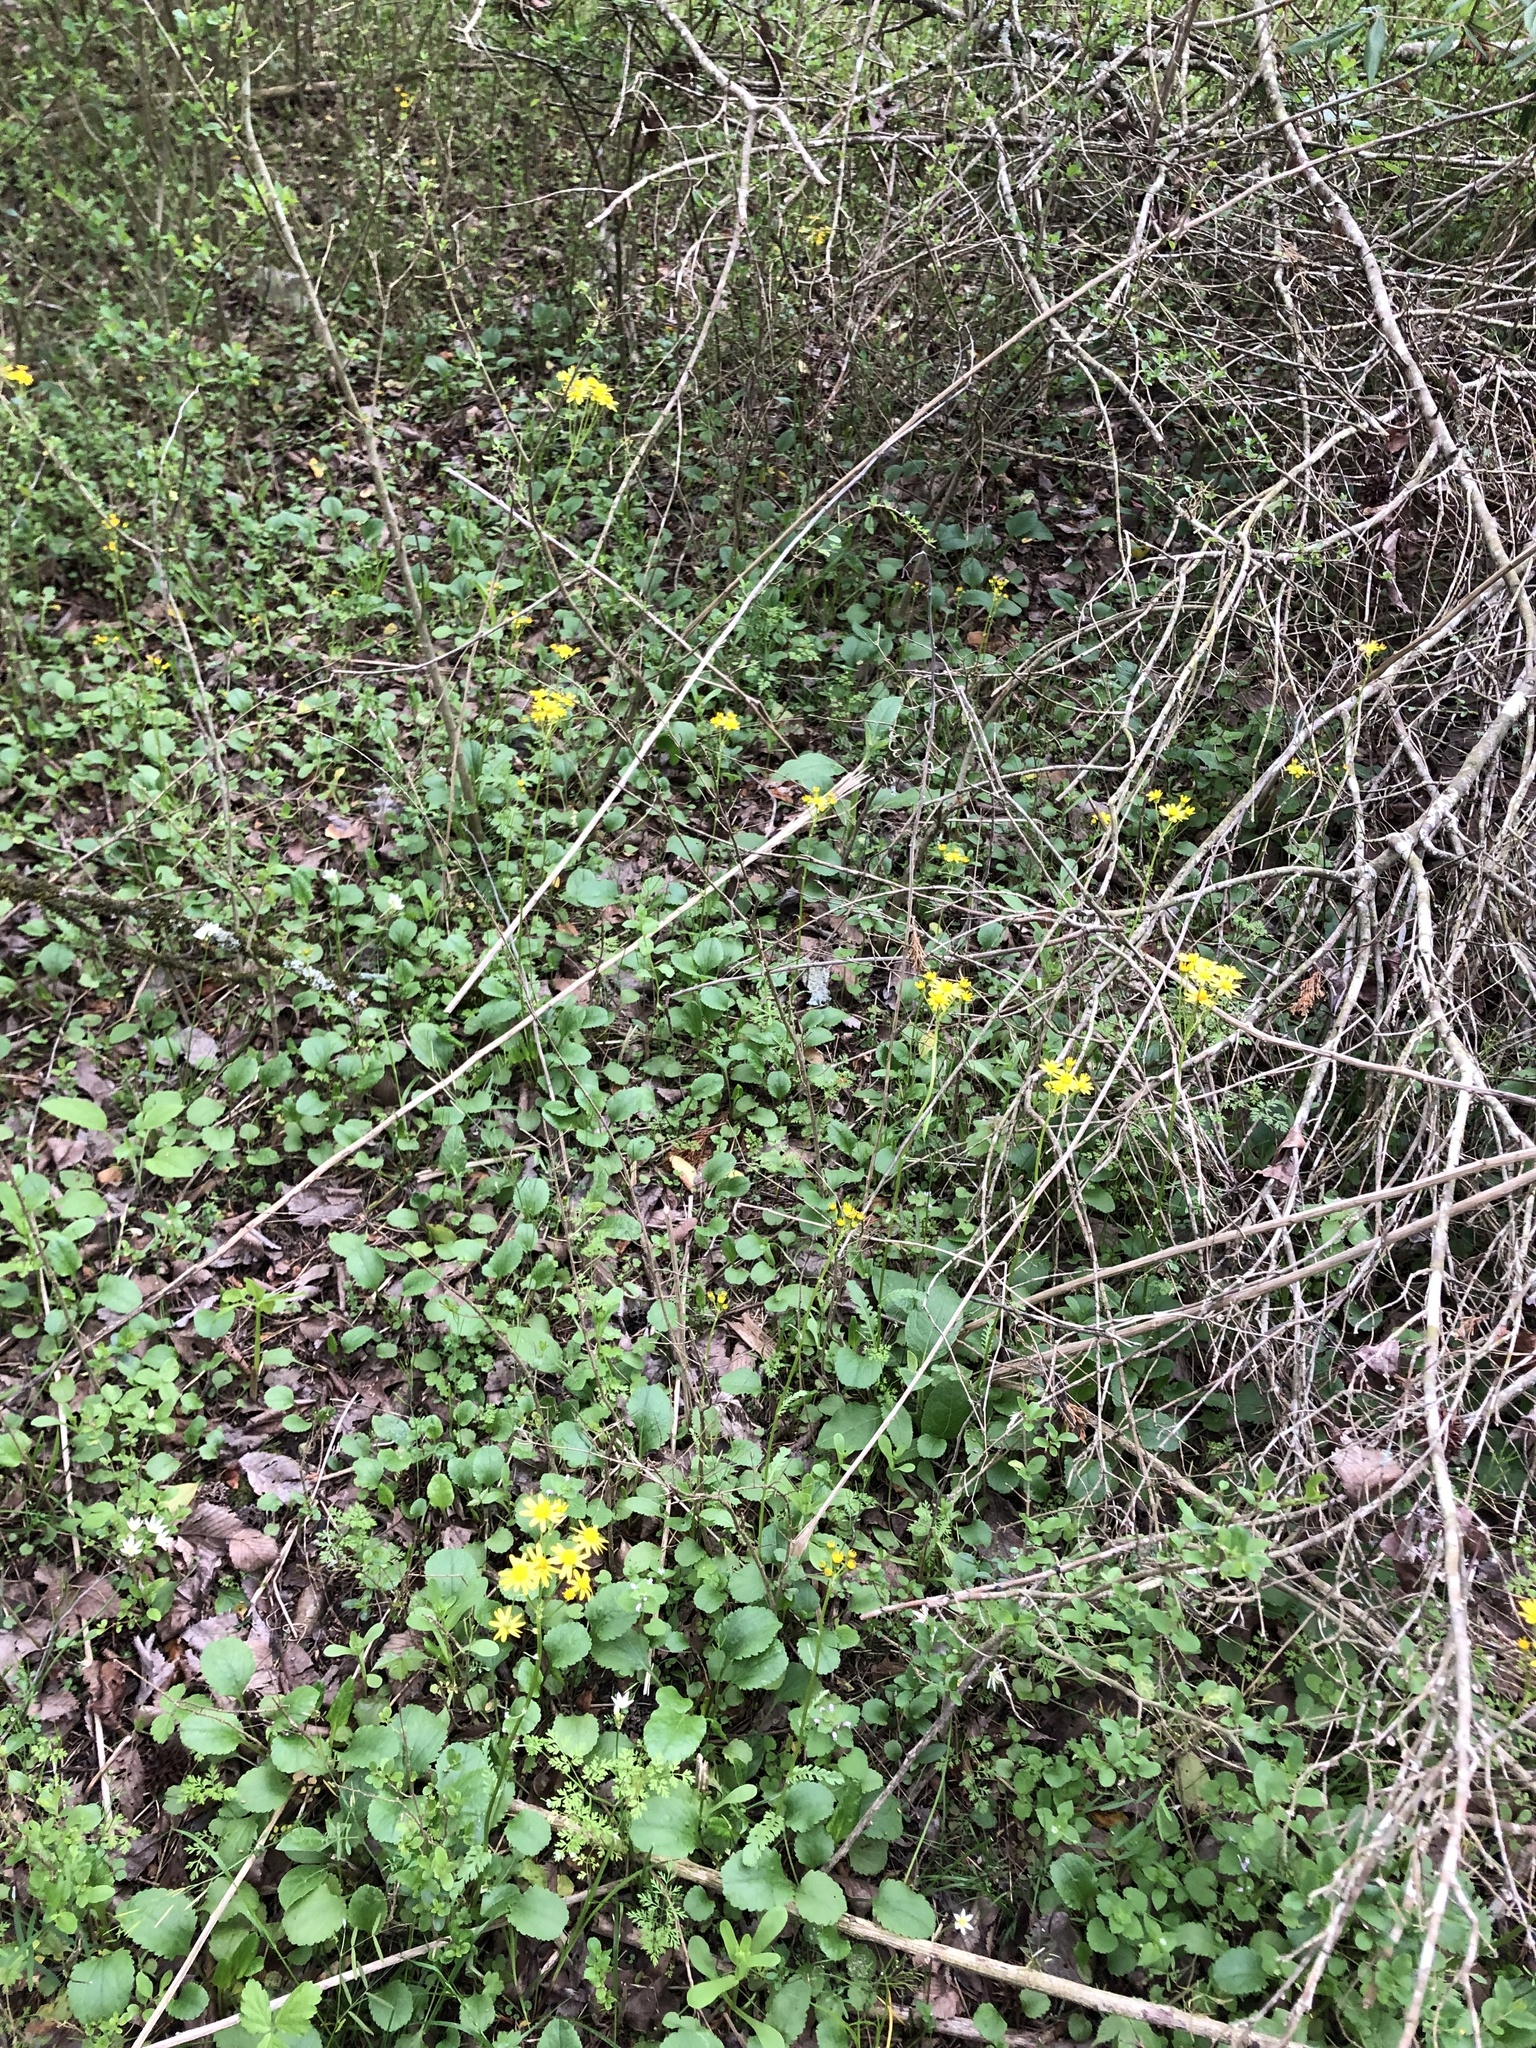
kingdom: Plantae
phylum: Tracheophyta
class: Magnoliopsida
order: Asterales
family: Asteraceae
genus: Packera
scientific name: Packera obovata
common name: Round-leaf ragwort
